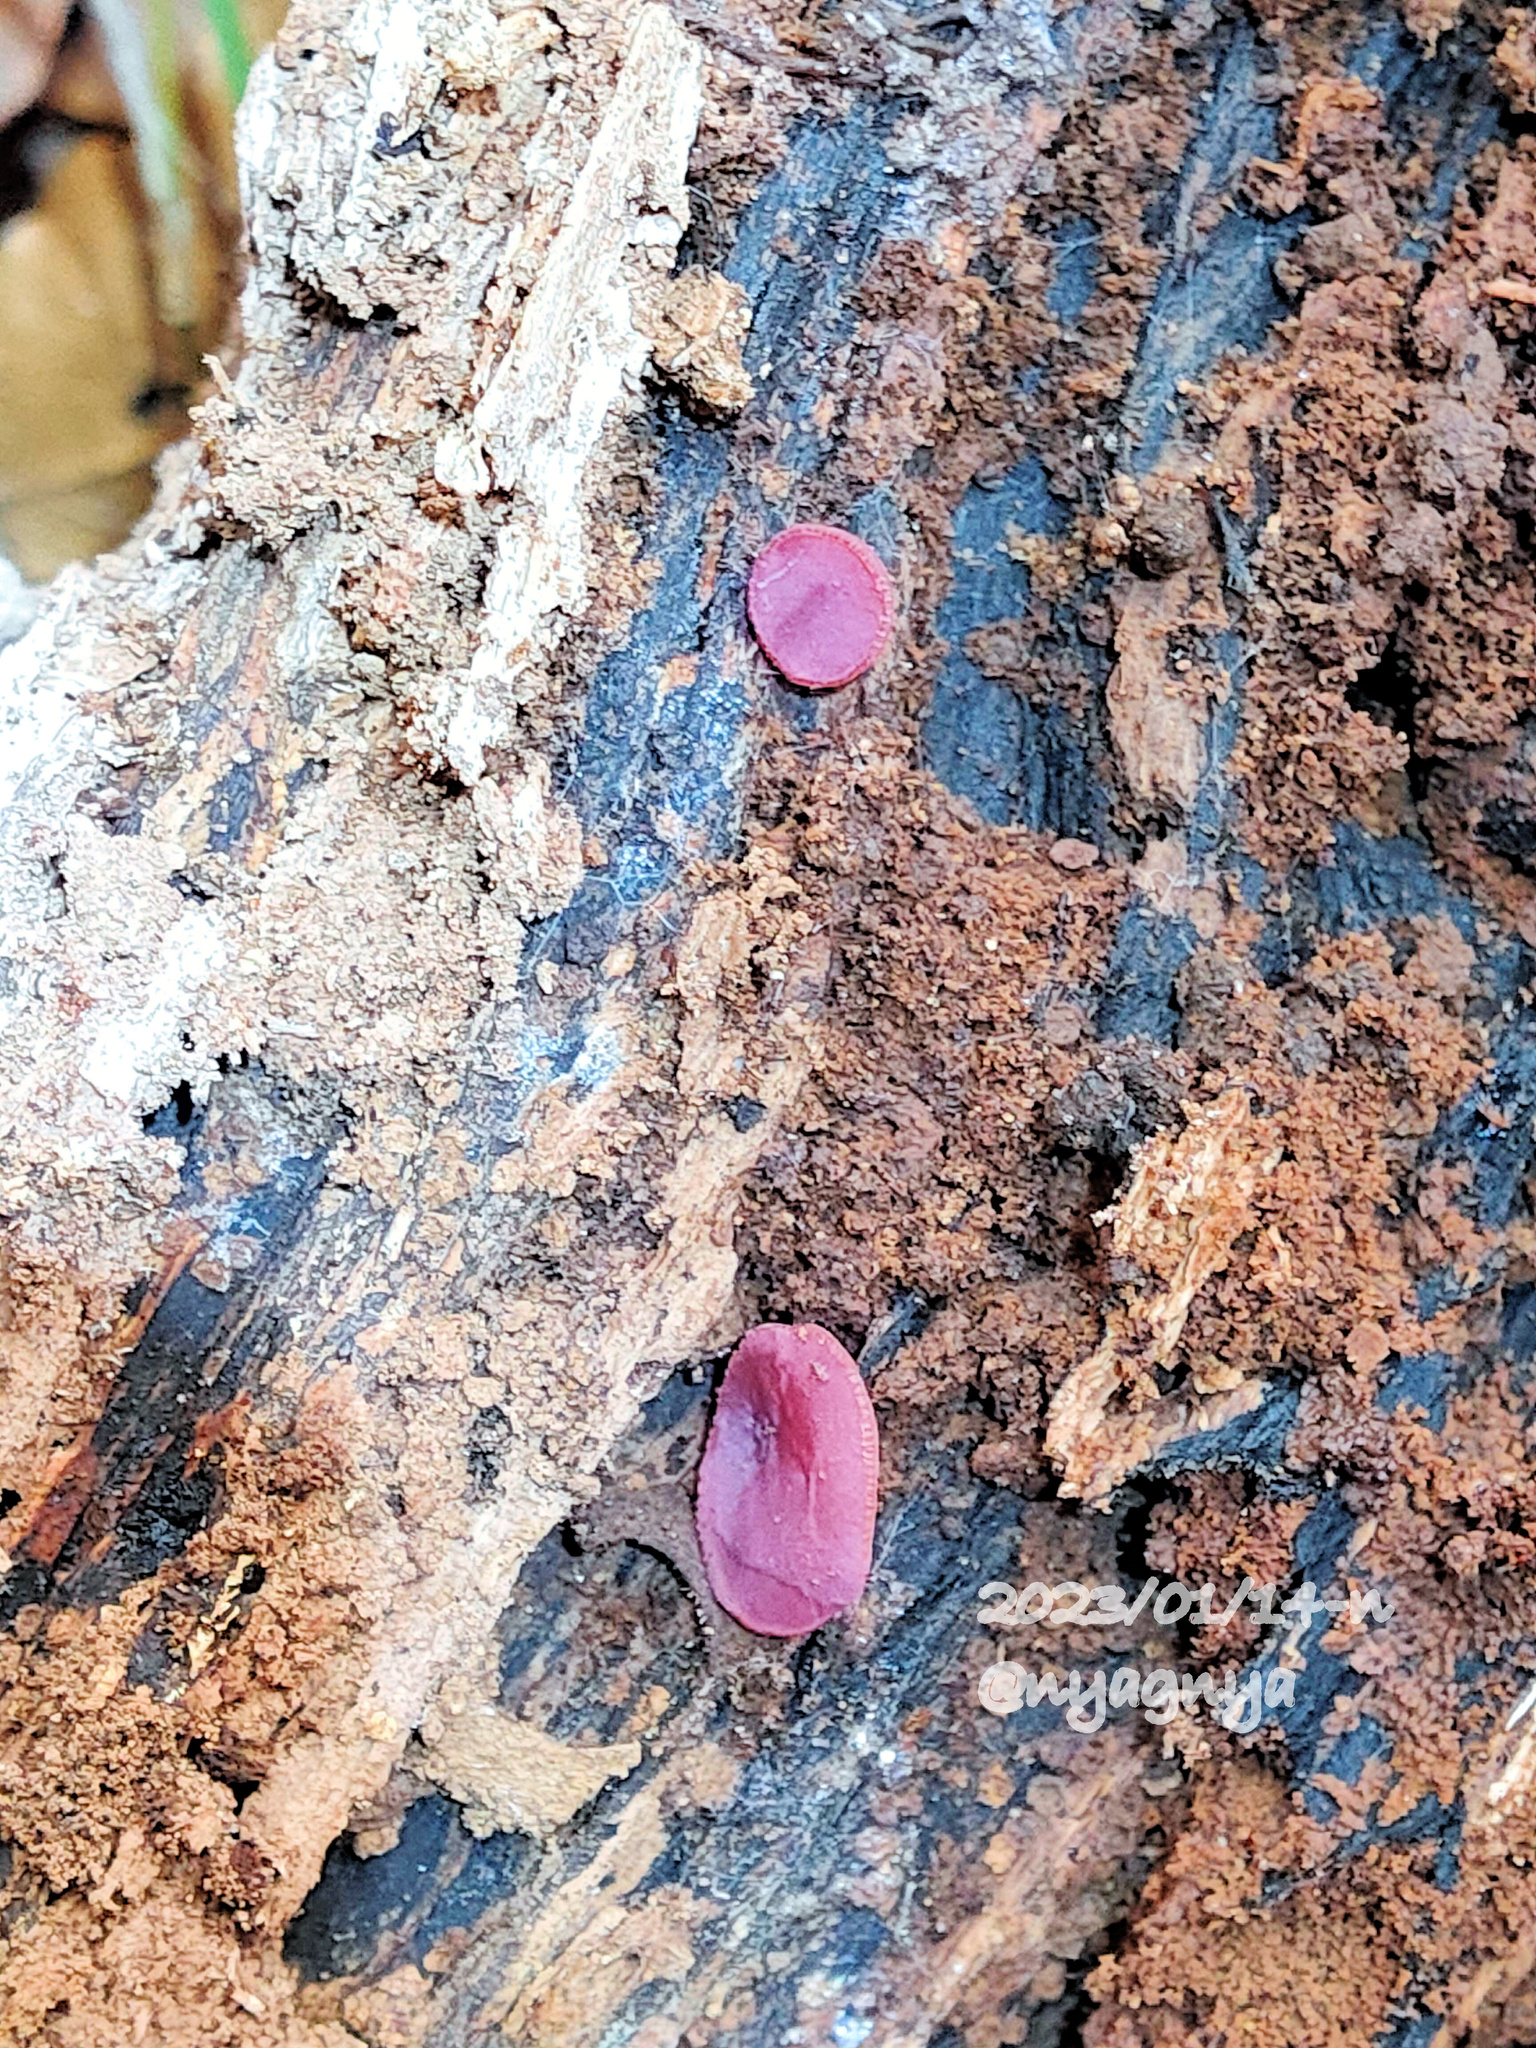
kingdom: Fungi
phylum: Ascomycota
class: Leotiomycetes
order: Helotiales
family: Gelatinodiscaceae
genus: Ascocoryne
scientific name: Ascocoryne cylichnium
